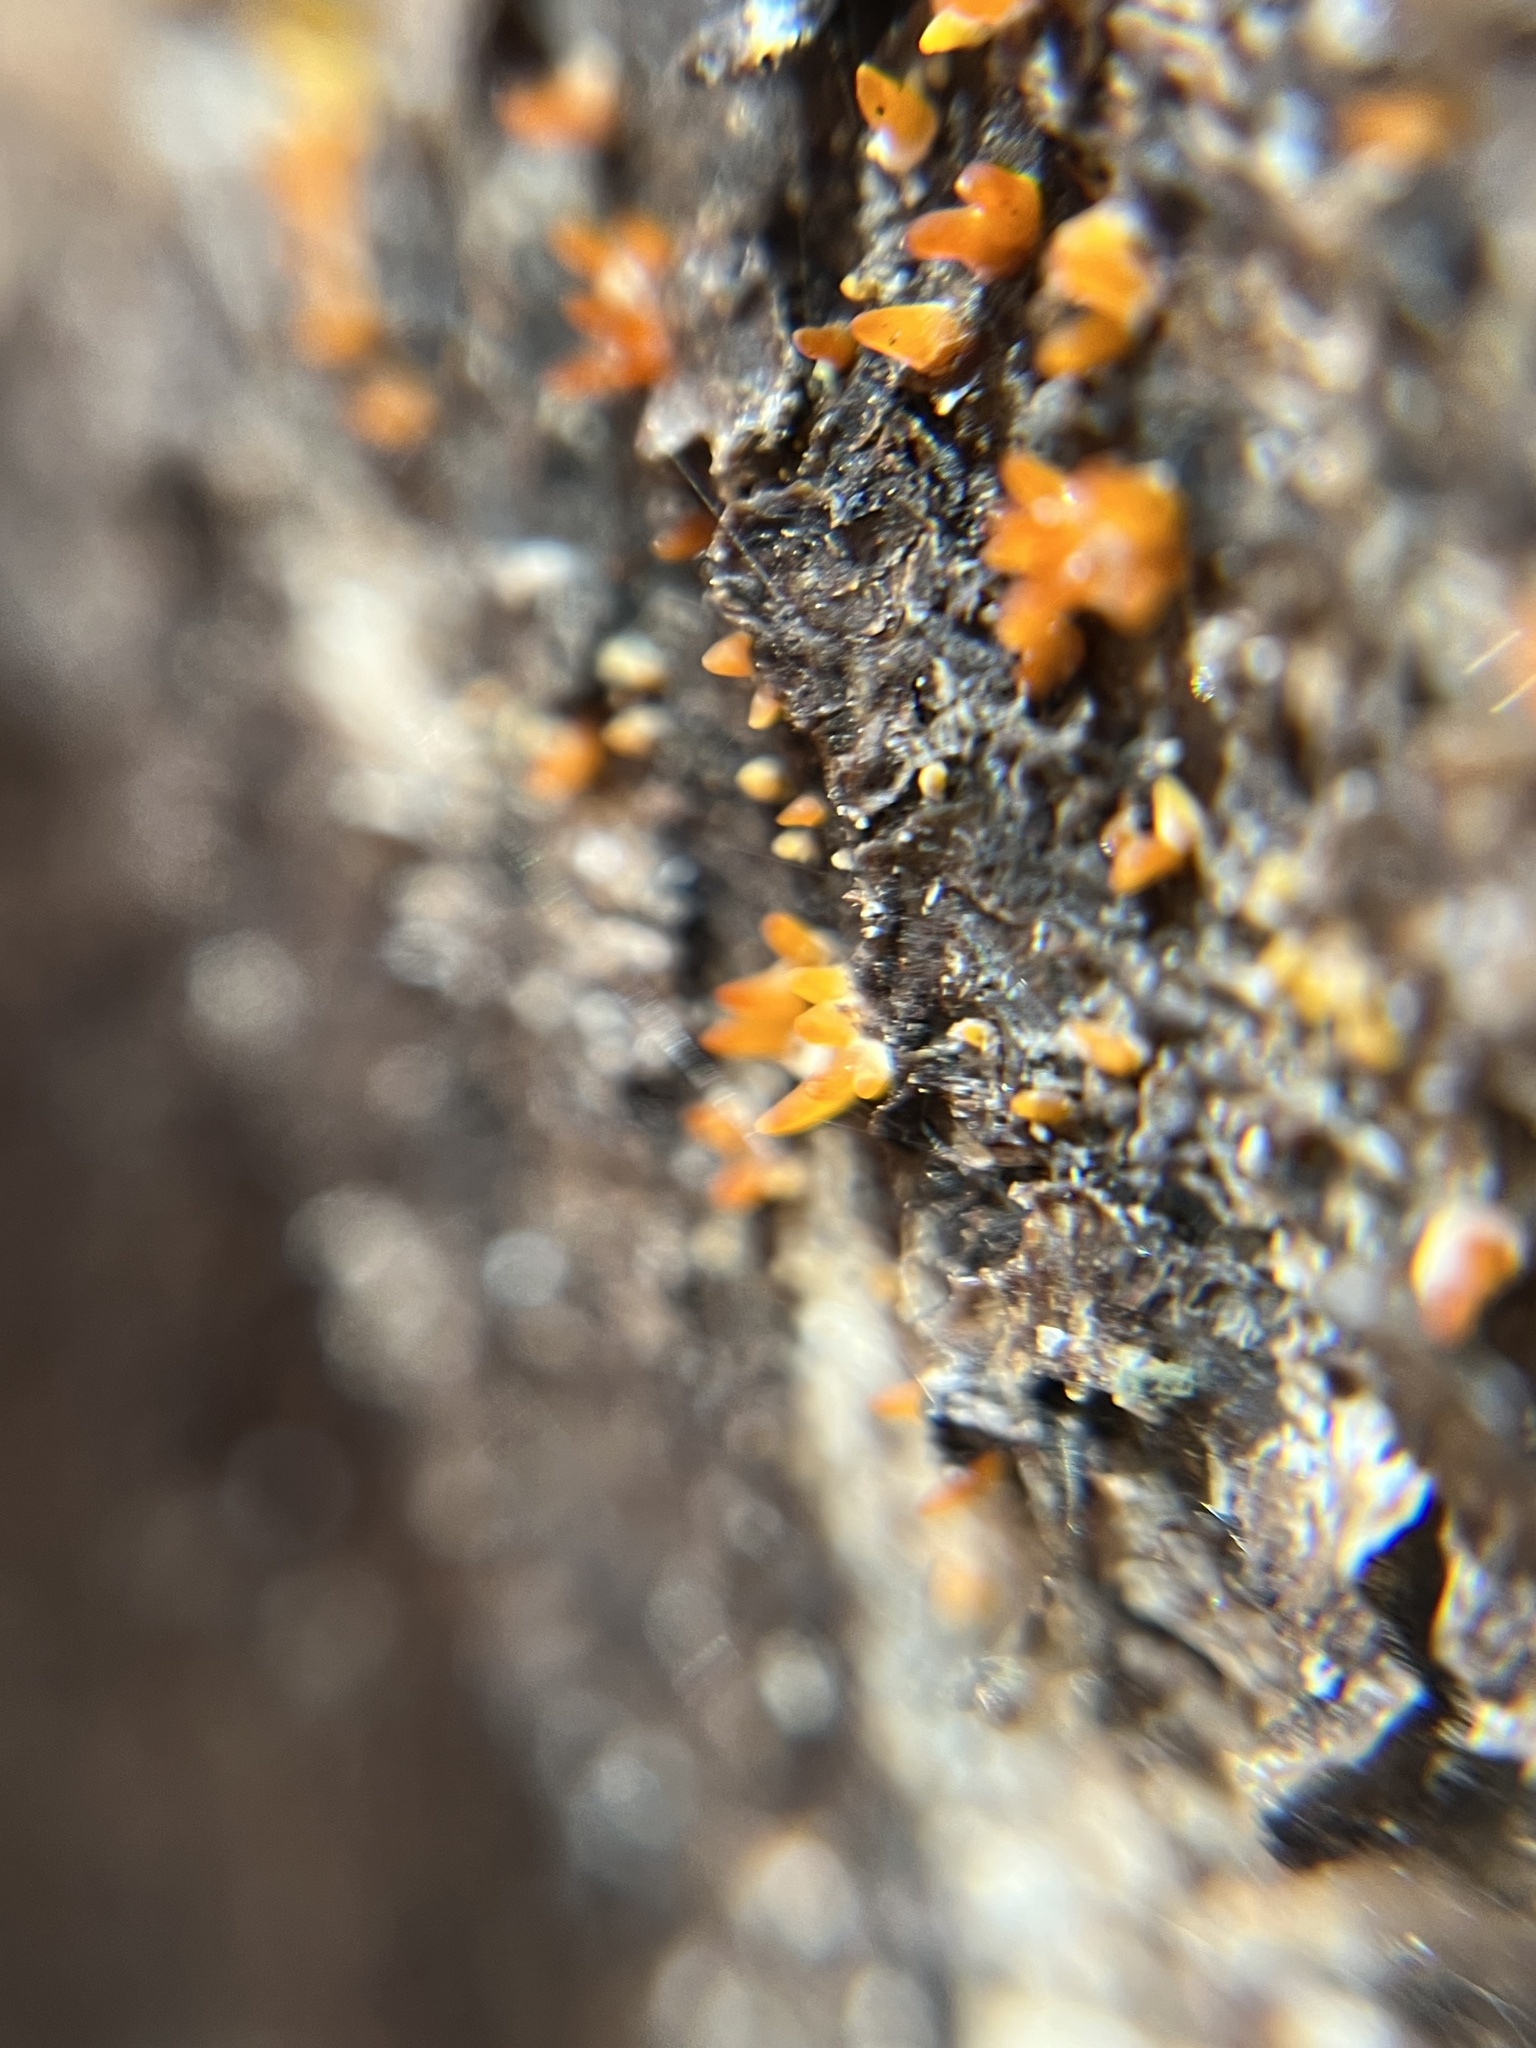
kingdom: Fungi
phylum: Basidiomycota
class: Dacrymycetes
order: Dacrymycetales
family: Dacrymycetaceae
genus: Calocera
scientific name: Calocera cornea
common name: Small stagshorn
